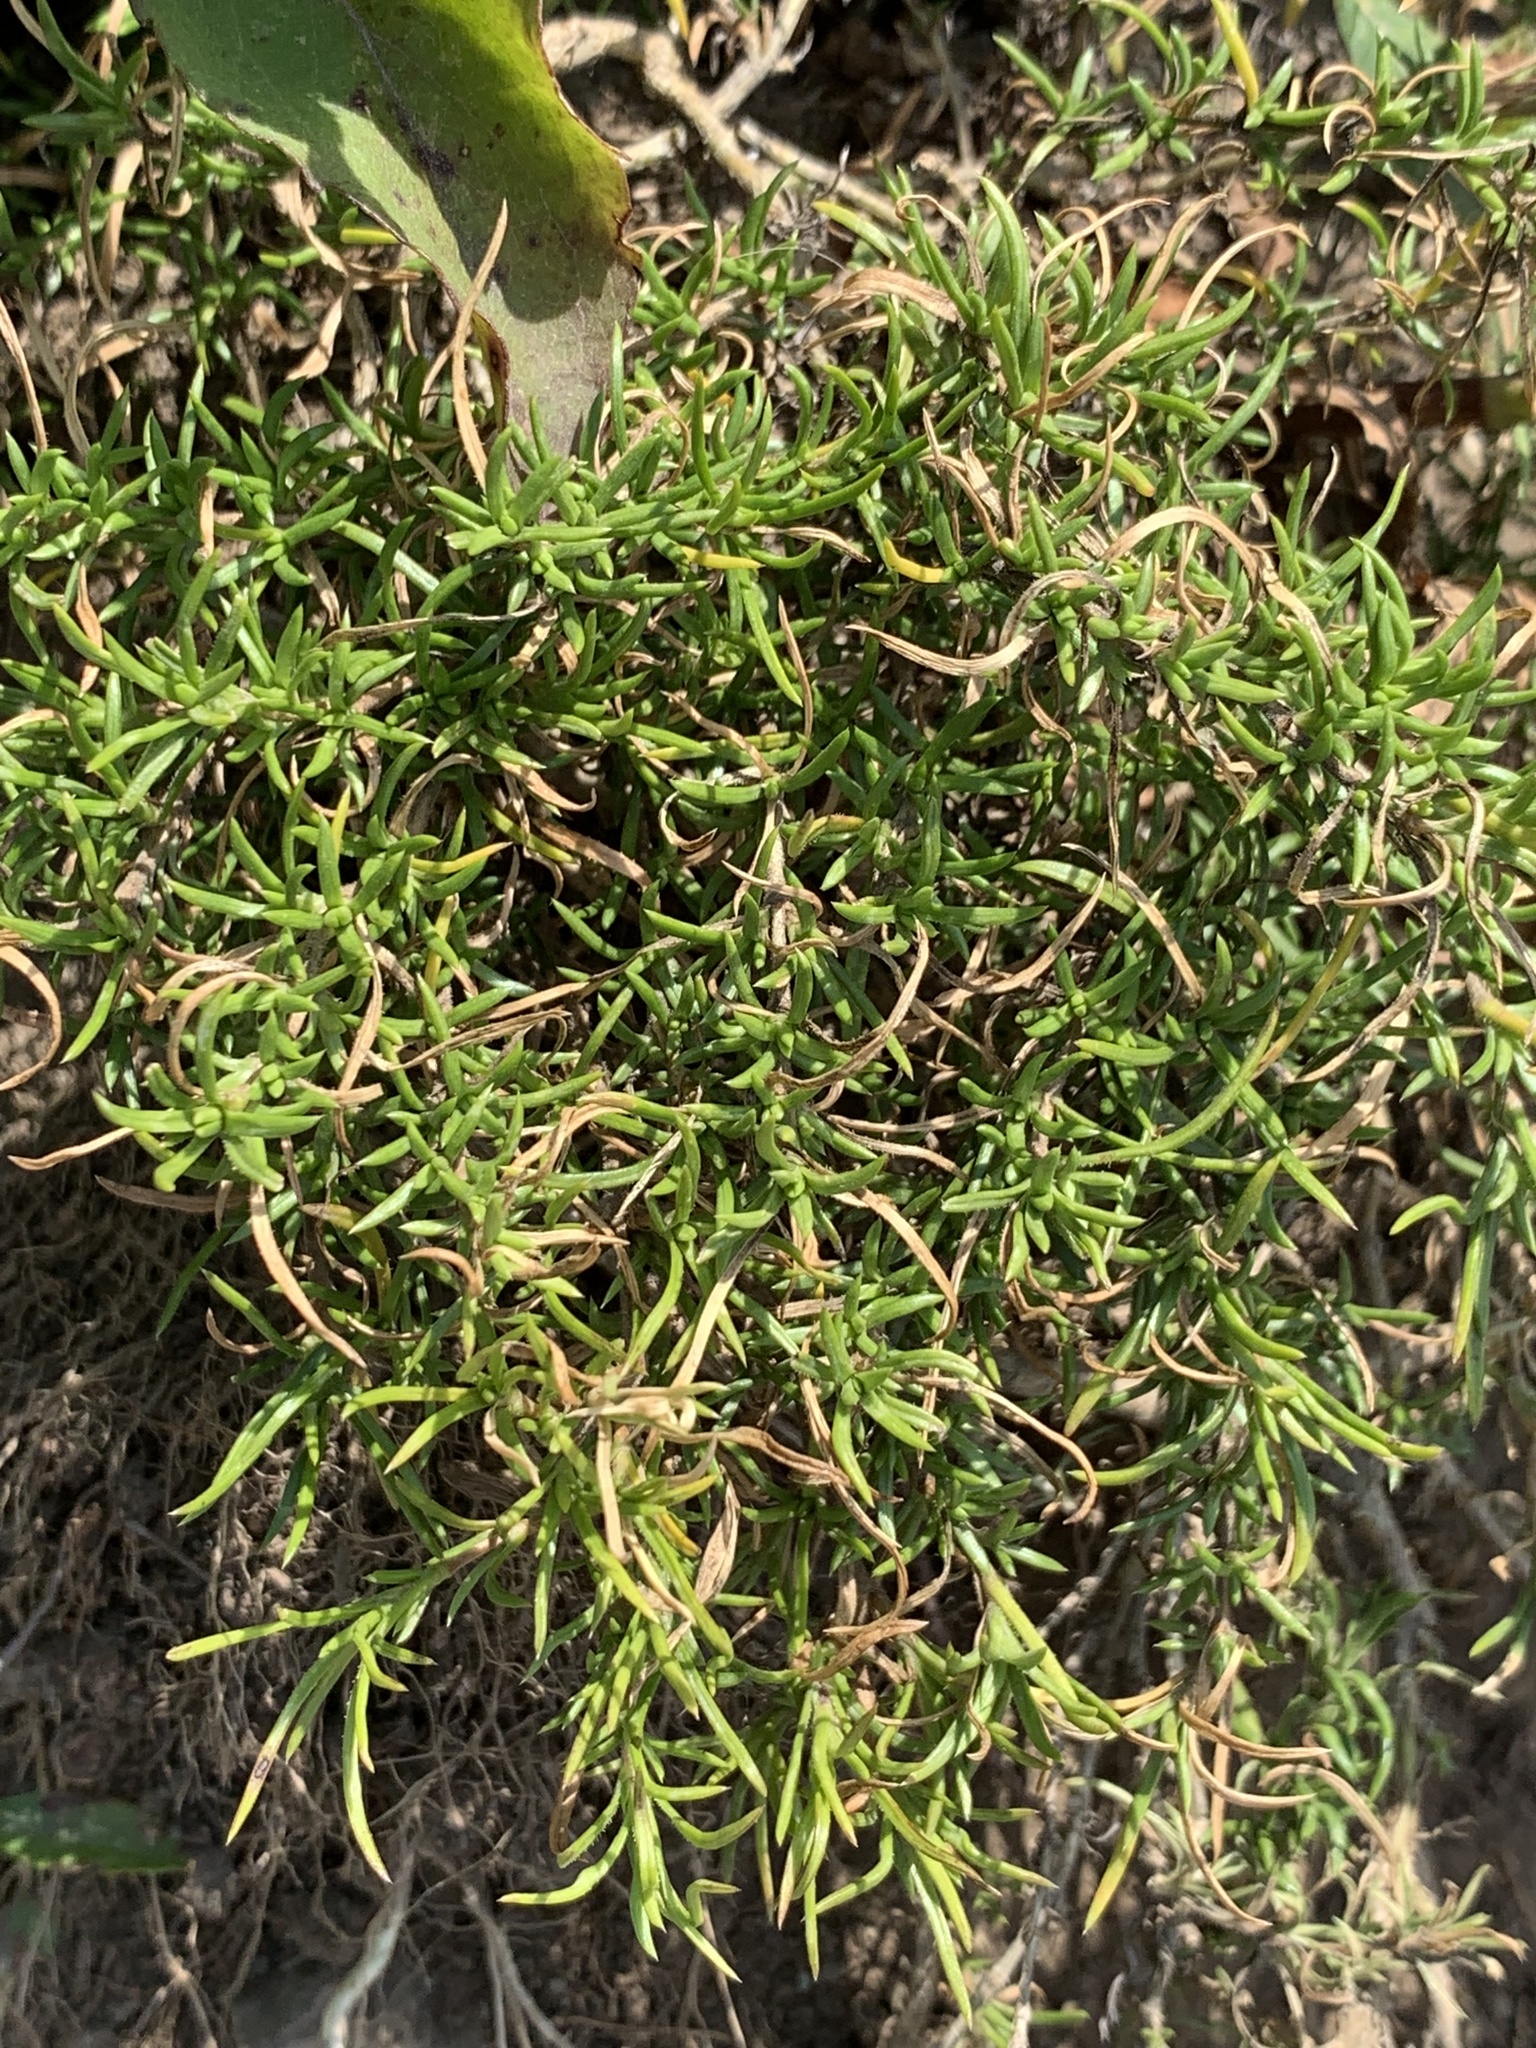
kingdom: Plantae
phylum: Tracheophyta
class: Magnoliopsida
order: Ericales
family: Polemoniaceae
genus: Phlox
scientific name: Phlox subulata
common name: Moss phlox
